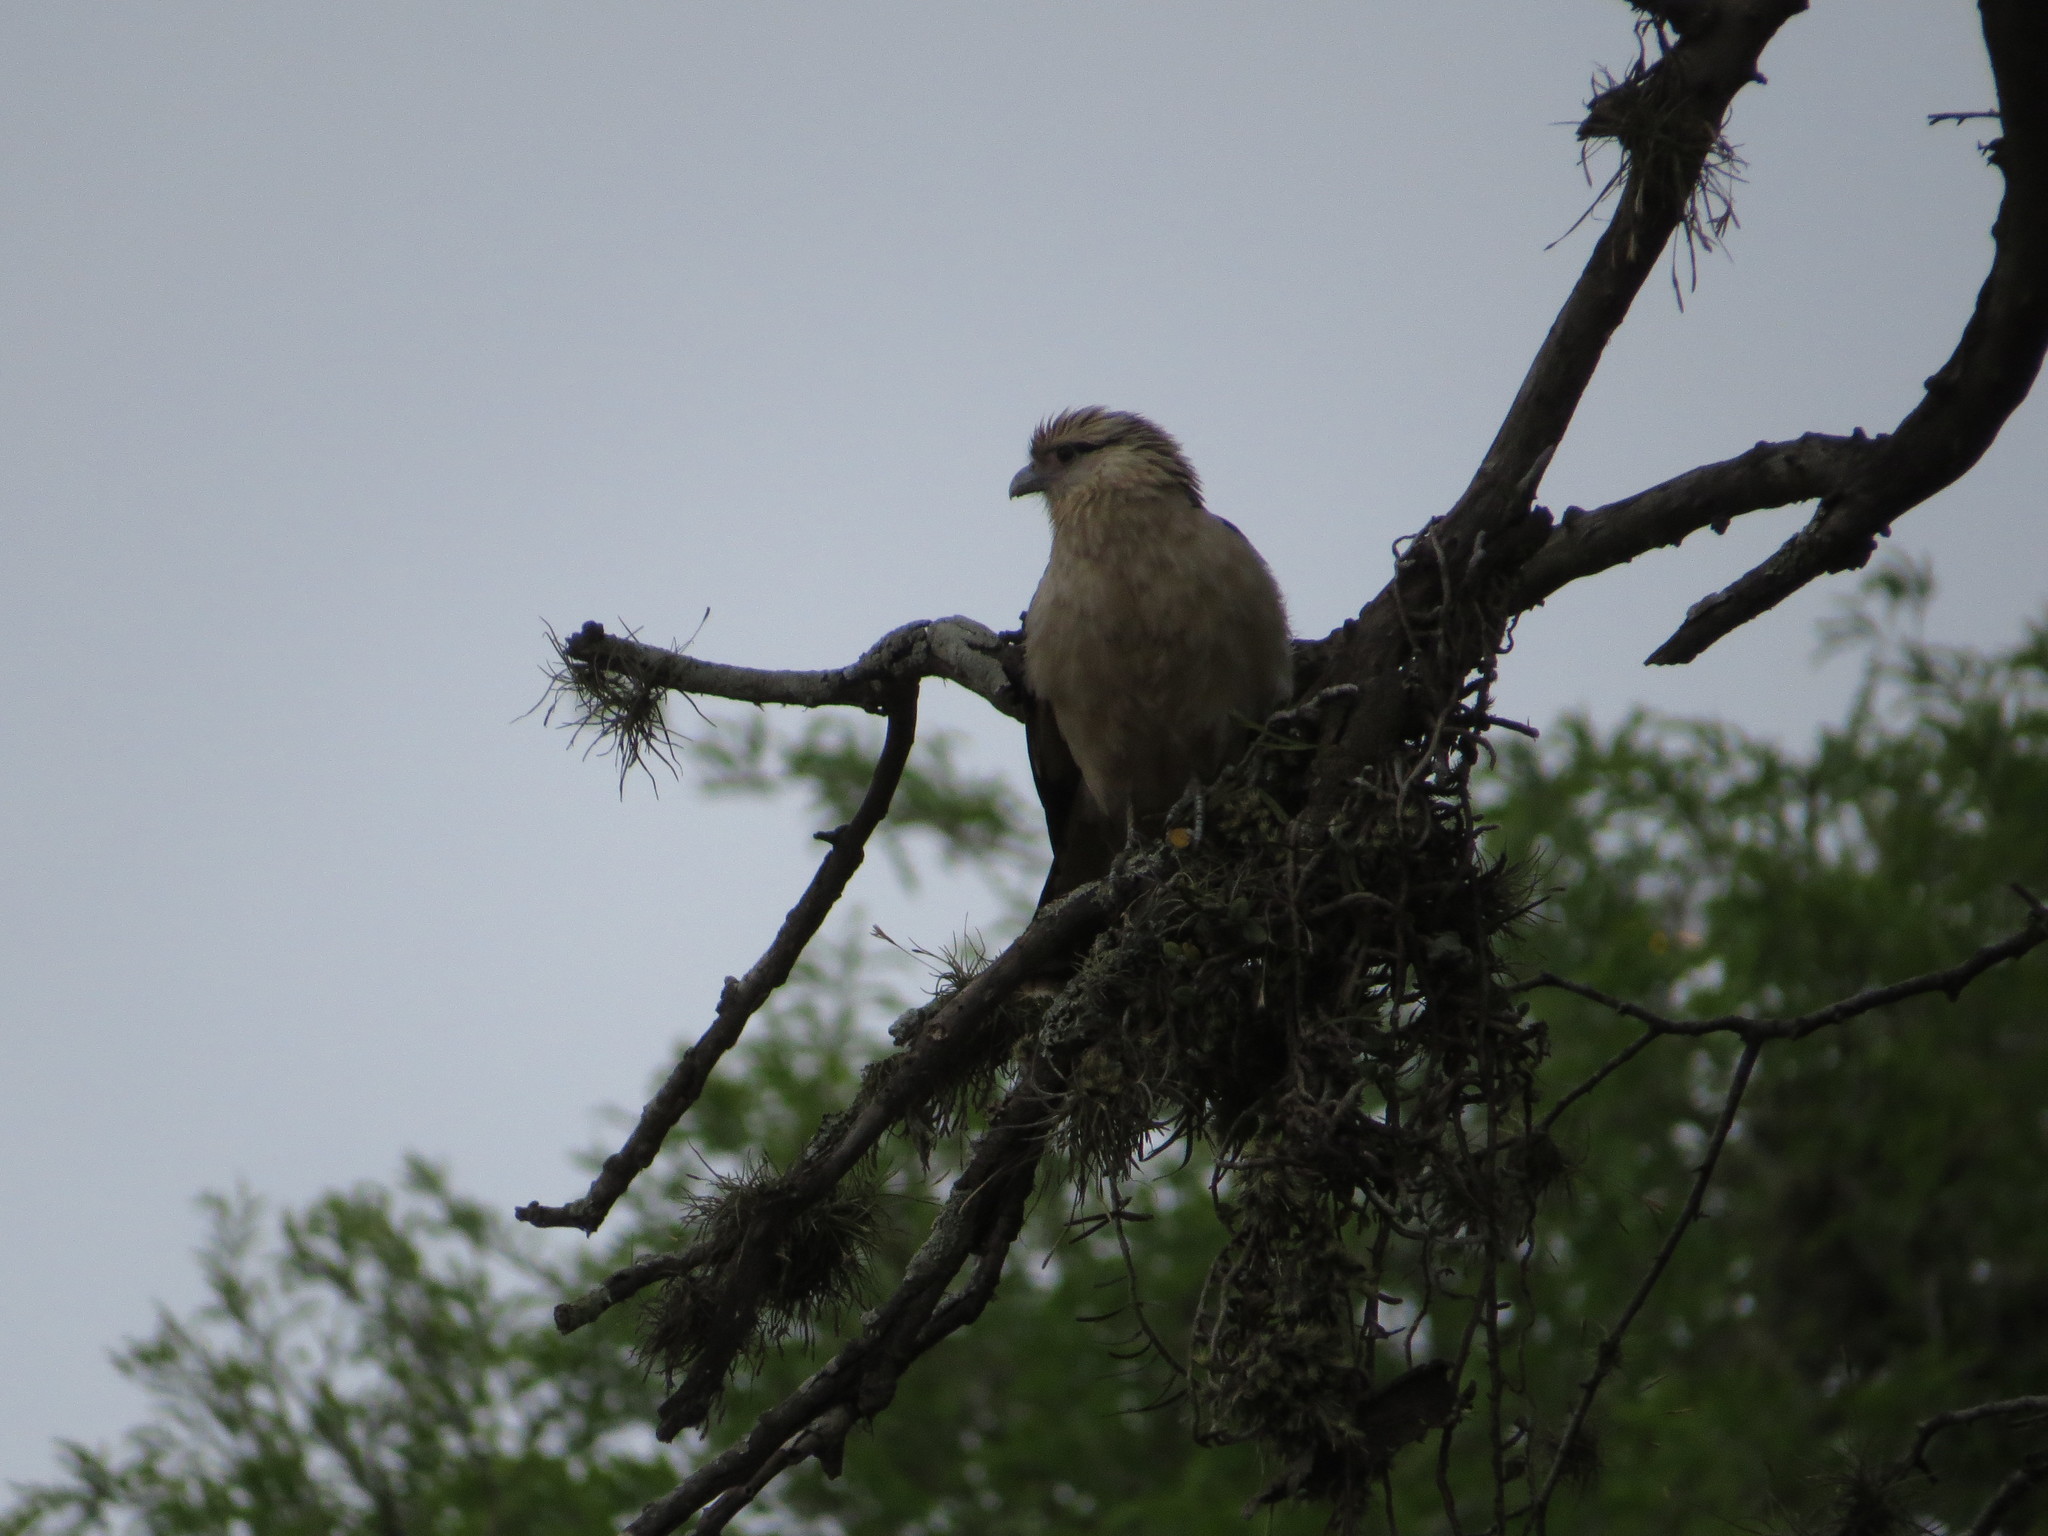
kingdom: Animalia
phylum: Chordata
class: Aves
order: Falconiformes
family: Falconidae
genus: Daptrius
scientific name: Daptrius
